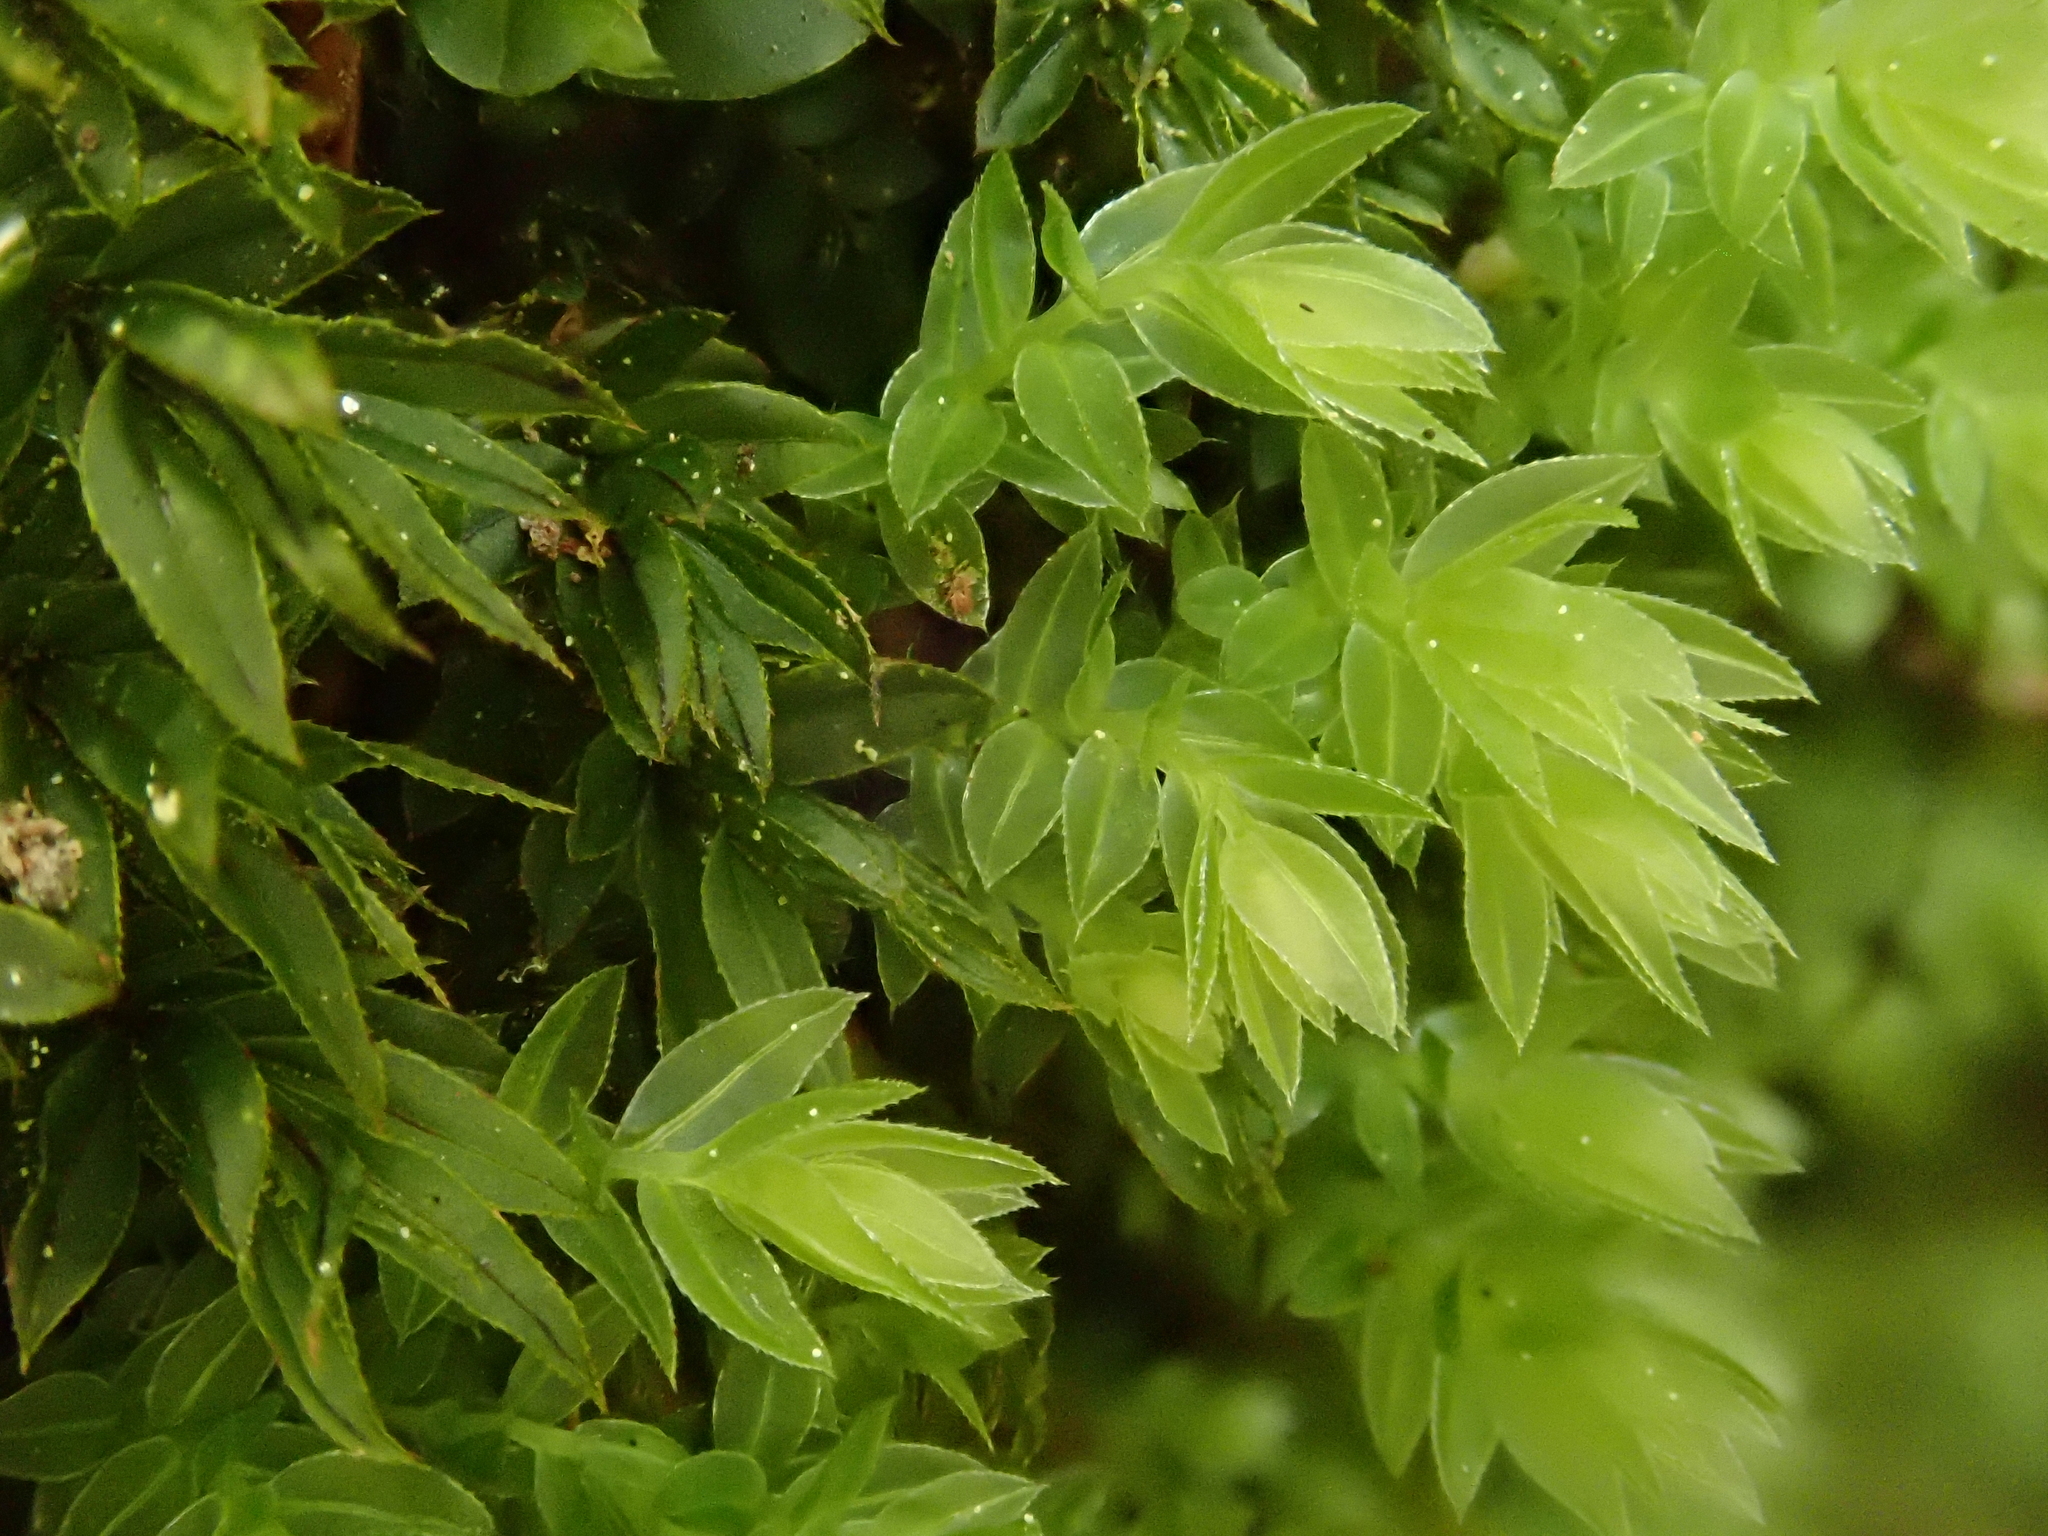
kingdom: Plantae
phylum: Bryophyta
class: Bryopsida
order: Bryales
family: Mniaceae
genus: Mnium
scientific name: Mnium hornum
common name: Swan's-neck leafy moss
